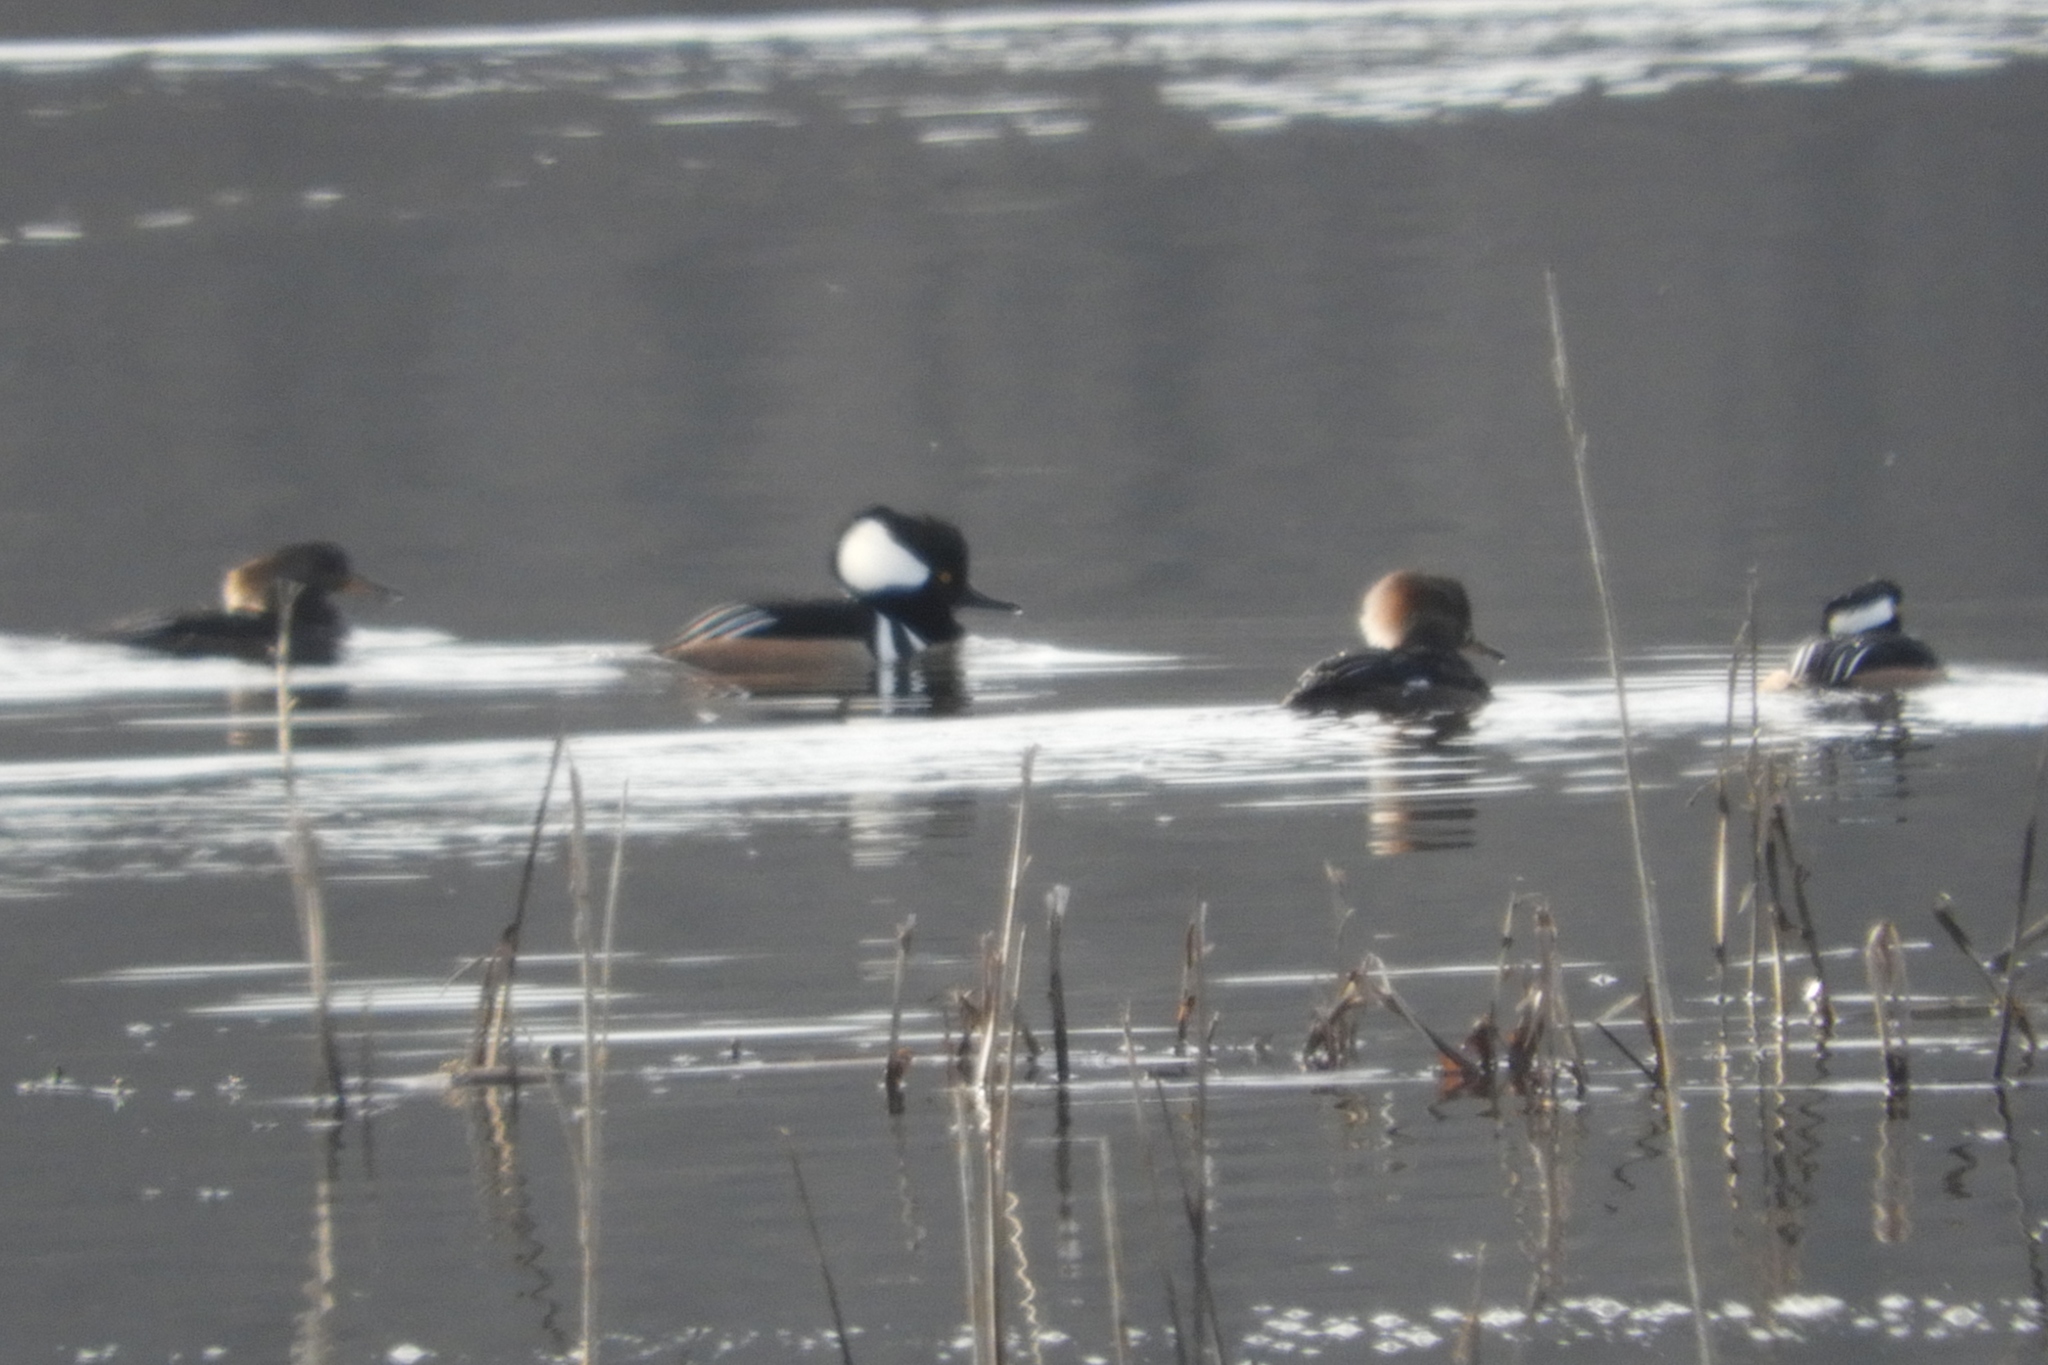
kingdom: Animalia
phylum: Chordata
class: Aves
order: Anseriformes
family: Anatidae
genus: Lophodytes
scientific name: Lophodytes cucullatus
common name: Hooded merganser
